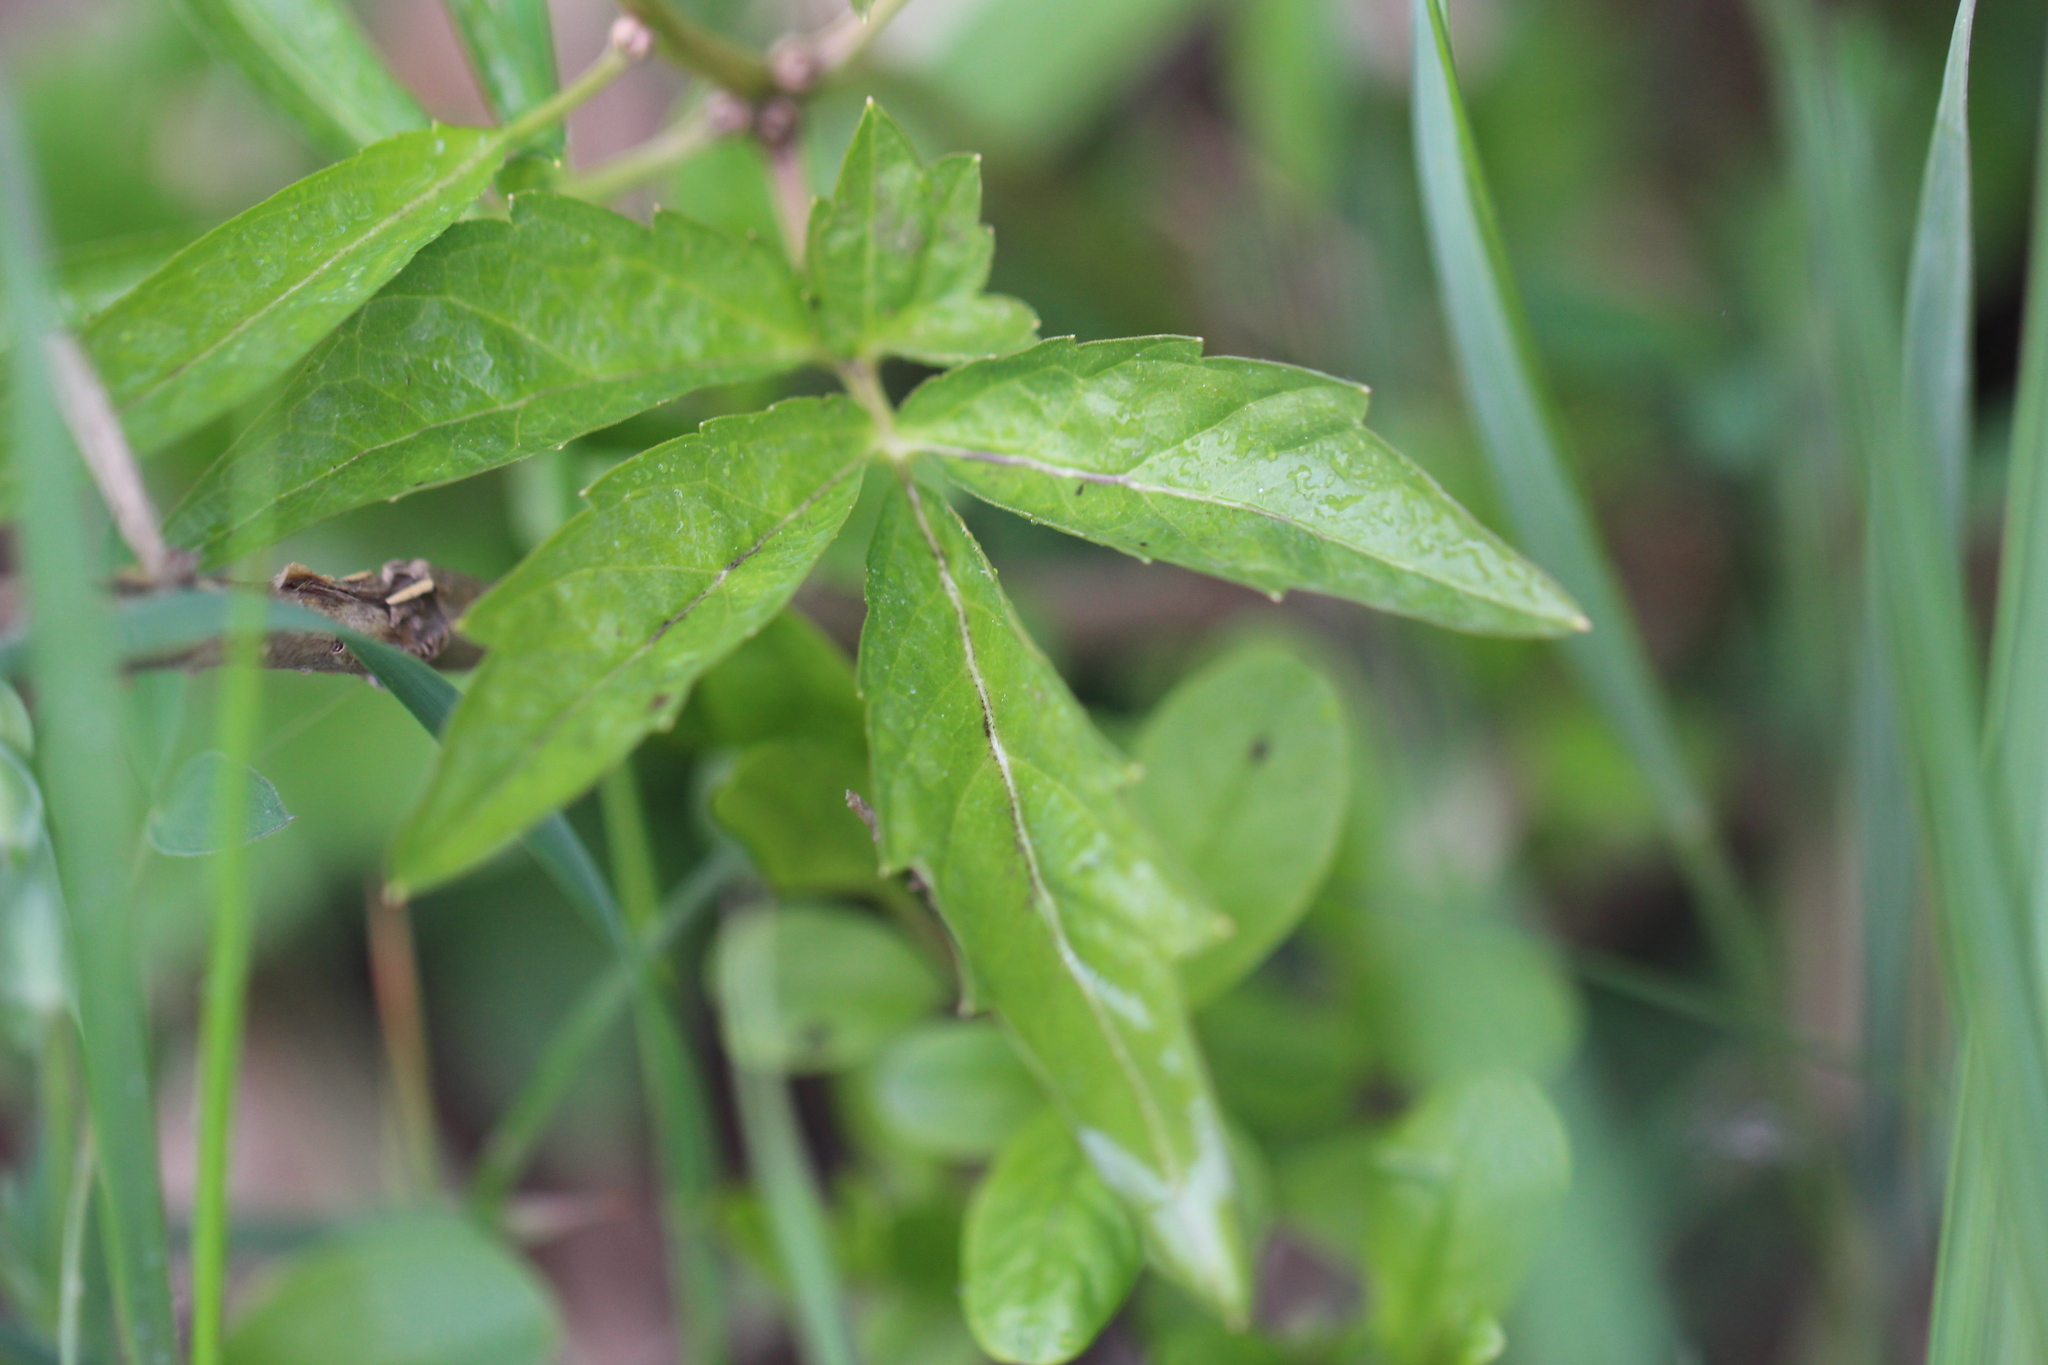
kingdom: Plantae
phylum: Tracheophyta
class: Magnoliopsida
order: Brassicales
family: Brassicaceae
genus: Cardamine
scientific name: Cardamine bulbifera
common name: Coralroot bittercress
